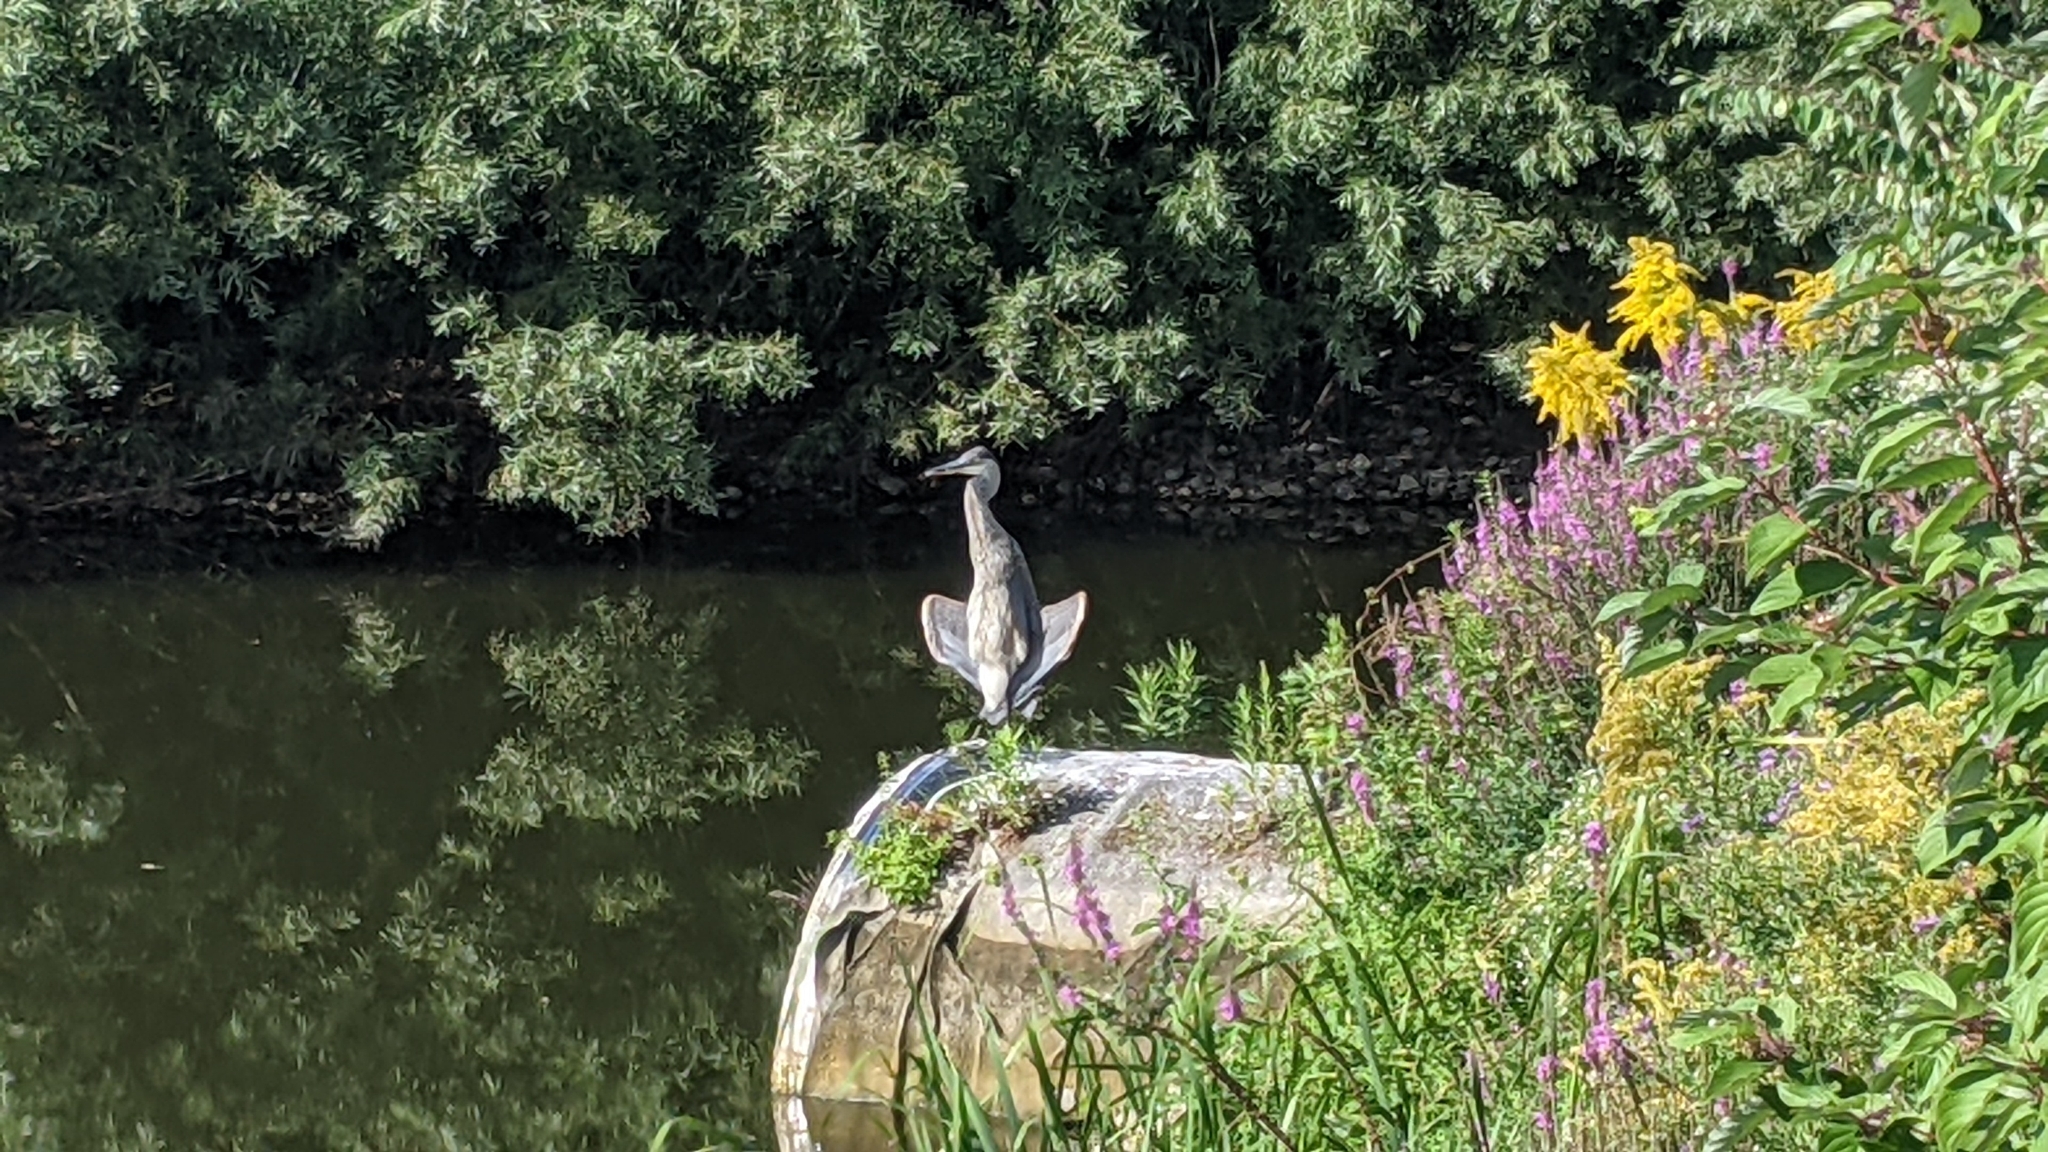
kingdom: Animalia
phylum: Chordata
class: Aves
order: Pelecaniformes
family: Ardeidae
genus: Ardea
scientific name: Ardea herodias
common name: Great blue heron
